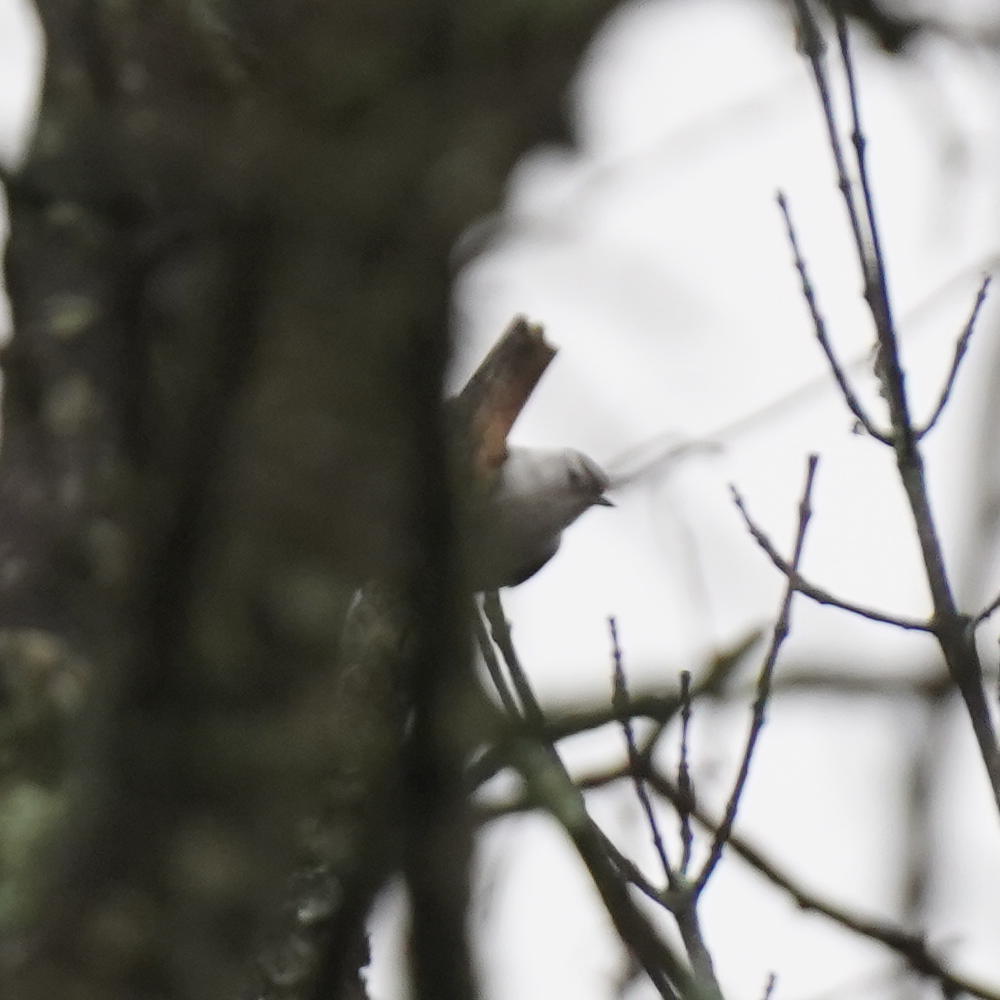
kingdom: Animalia
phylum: Chordata
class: Aves
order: Passeriformes
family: Sittidae
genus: Sitta
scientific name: Sitta carolinensis
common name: White-breasted nuthatch
